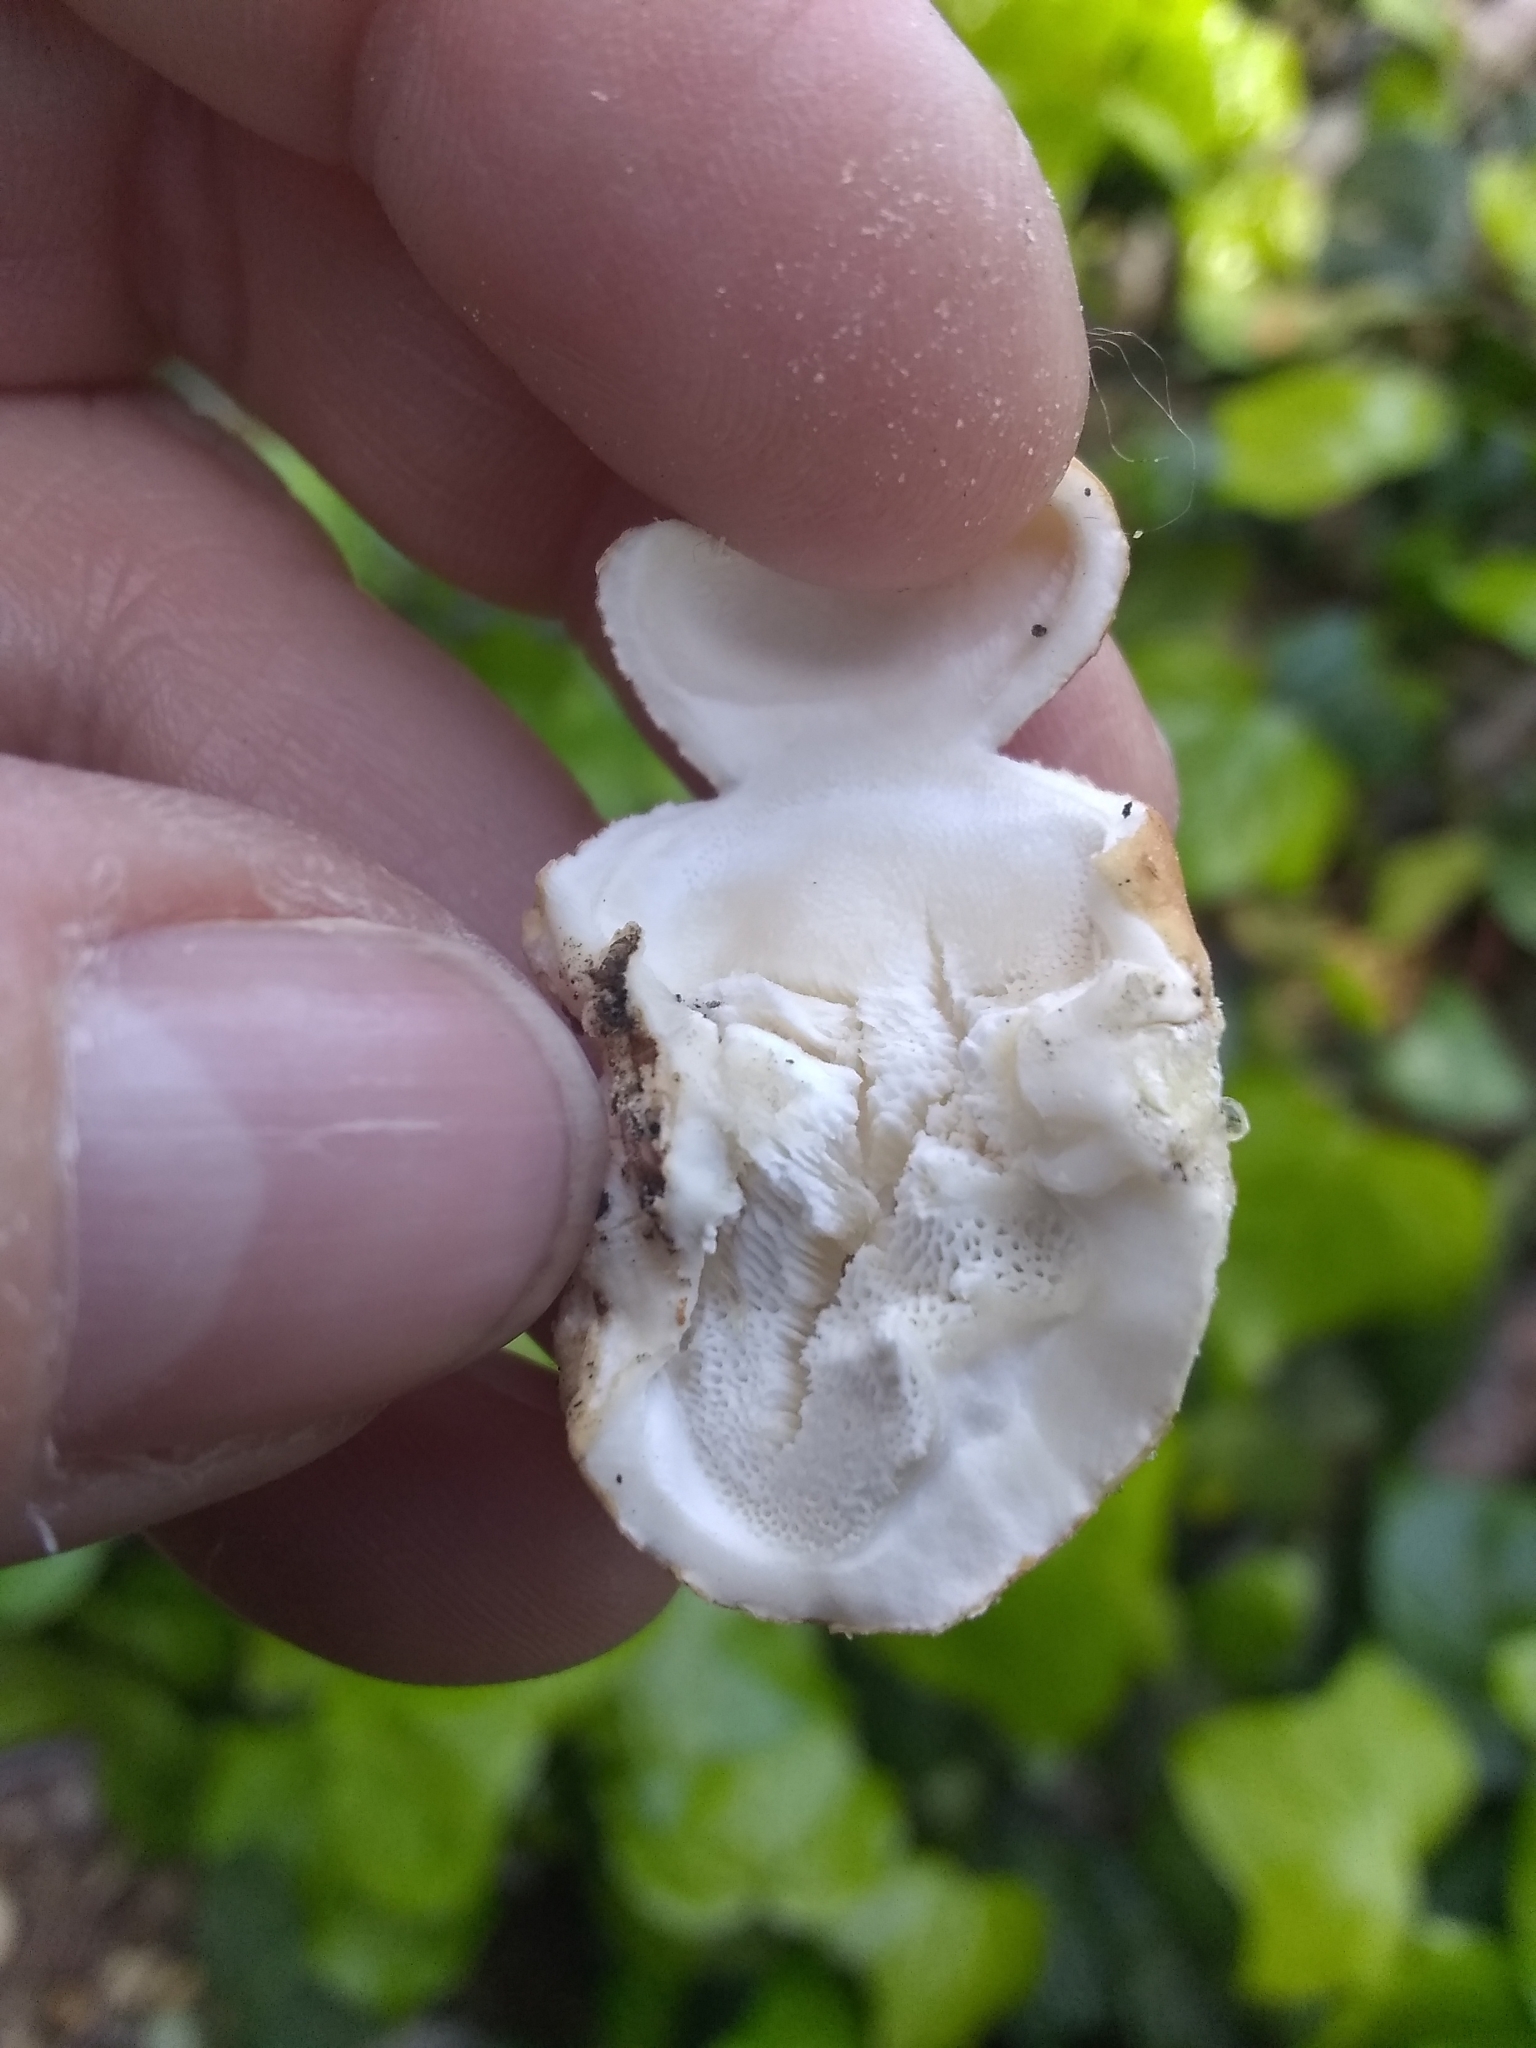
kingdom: Fungi
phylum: Basidiomycota
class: Agaricomycetes
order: Polyporales
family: Polyporaceae
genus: Cryptoporus
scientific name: Cryptoporus volvatus
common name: Veiled polypore
